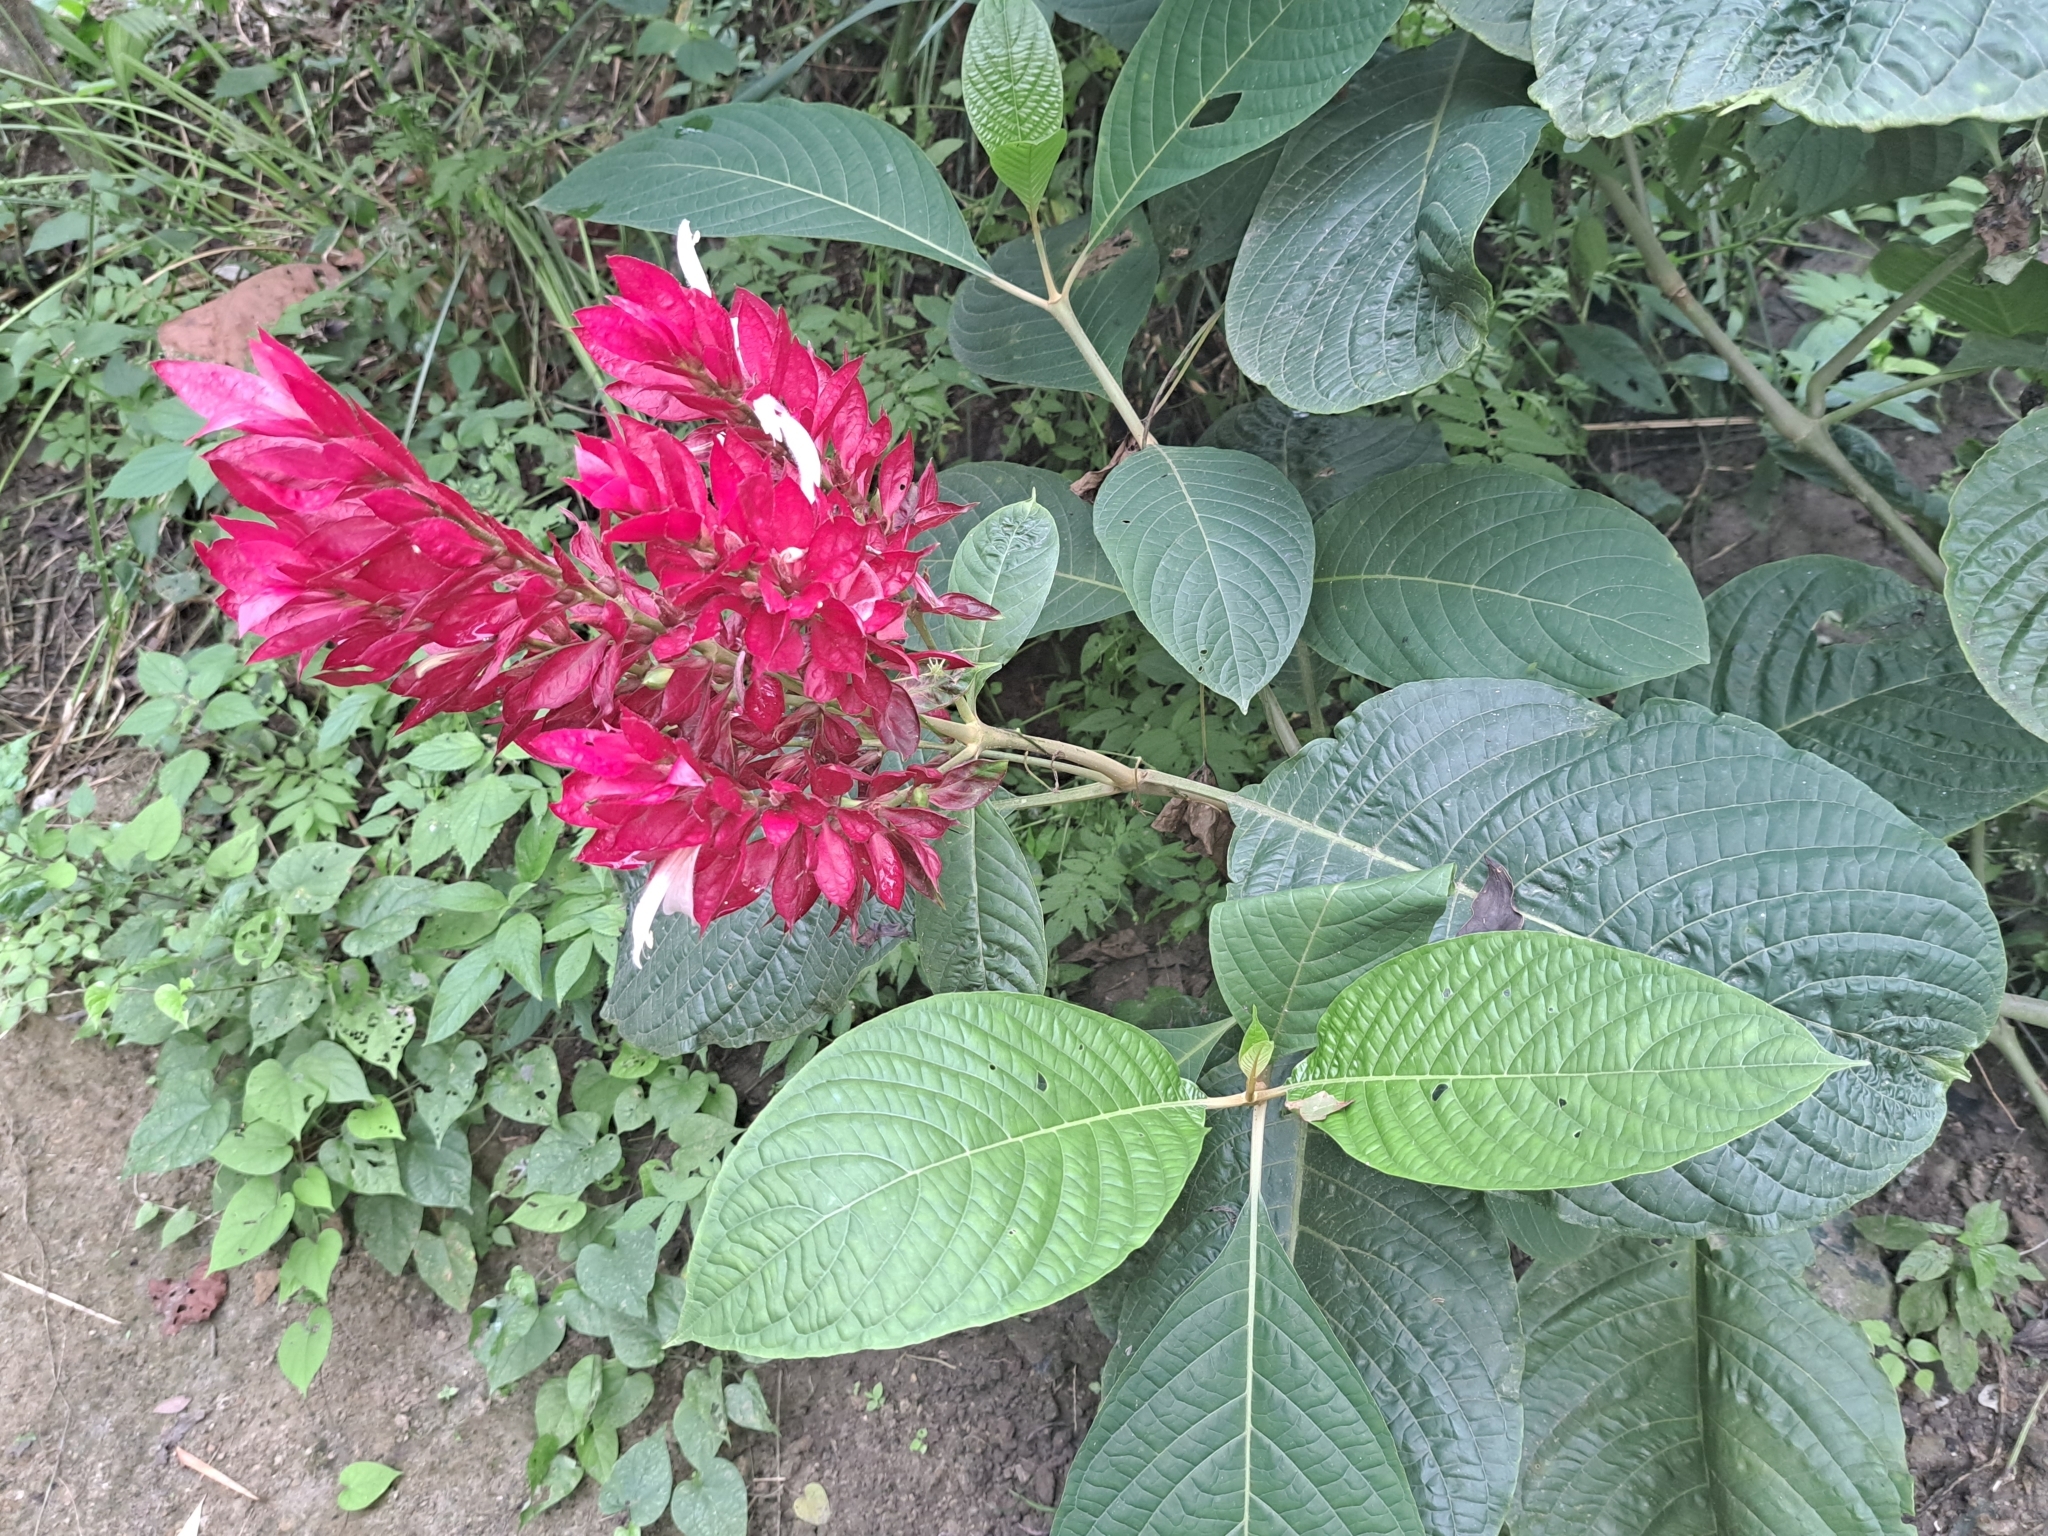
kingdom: Plantae
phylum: Tracheophyta
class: Magnoliopsida
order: Lamiales
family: Acanthaceae
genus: Megaskepasma
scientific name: Megaskepasma erythrochlamys
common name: Brazilian red-cloak
